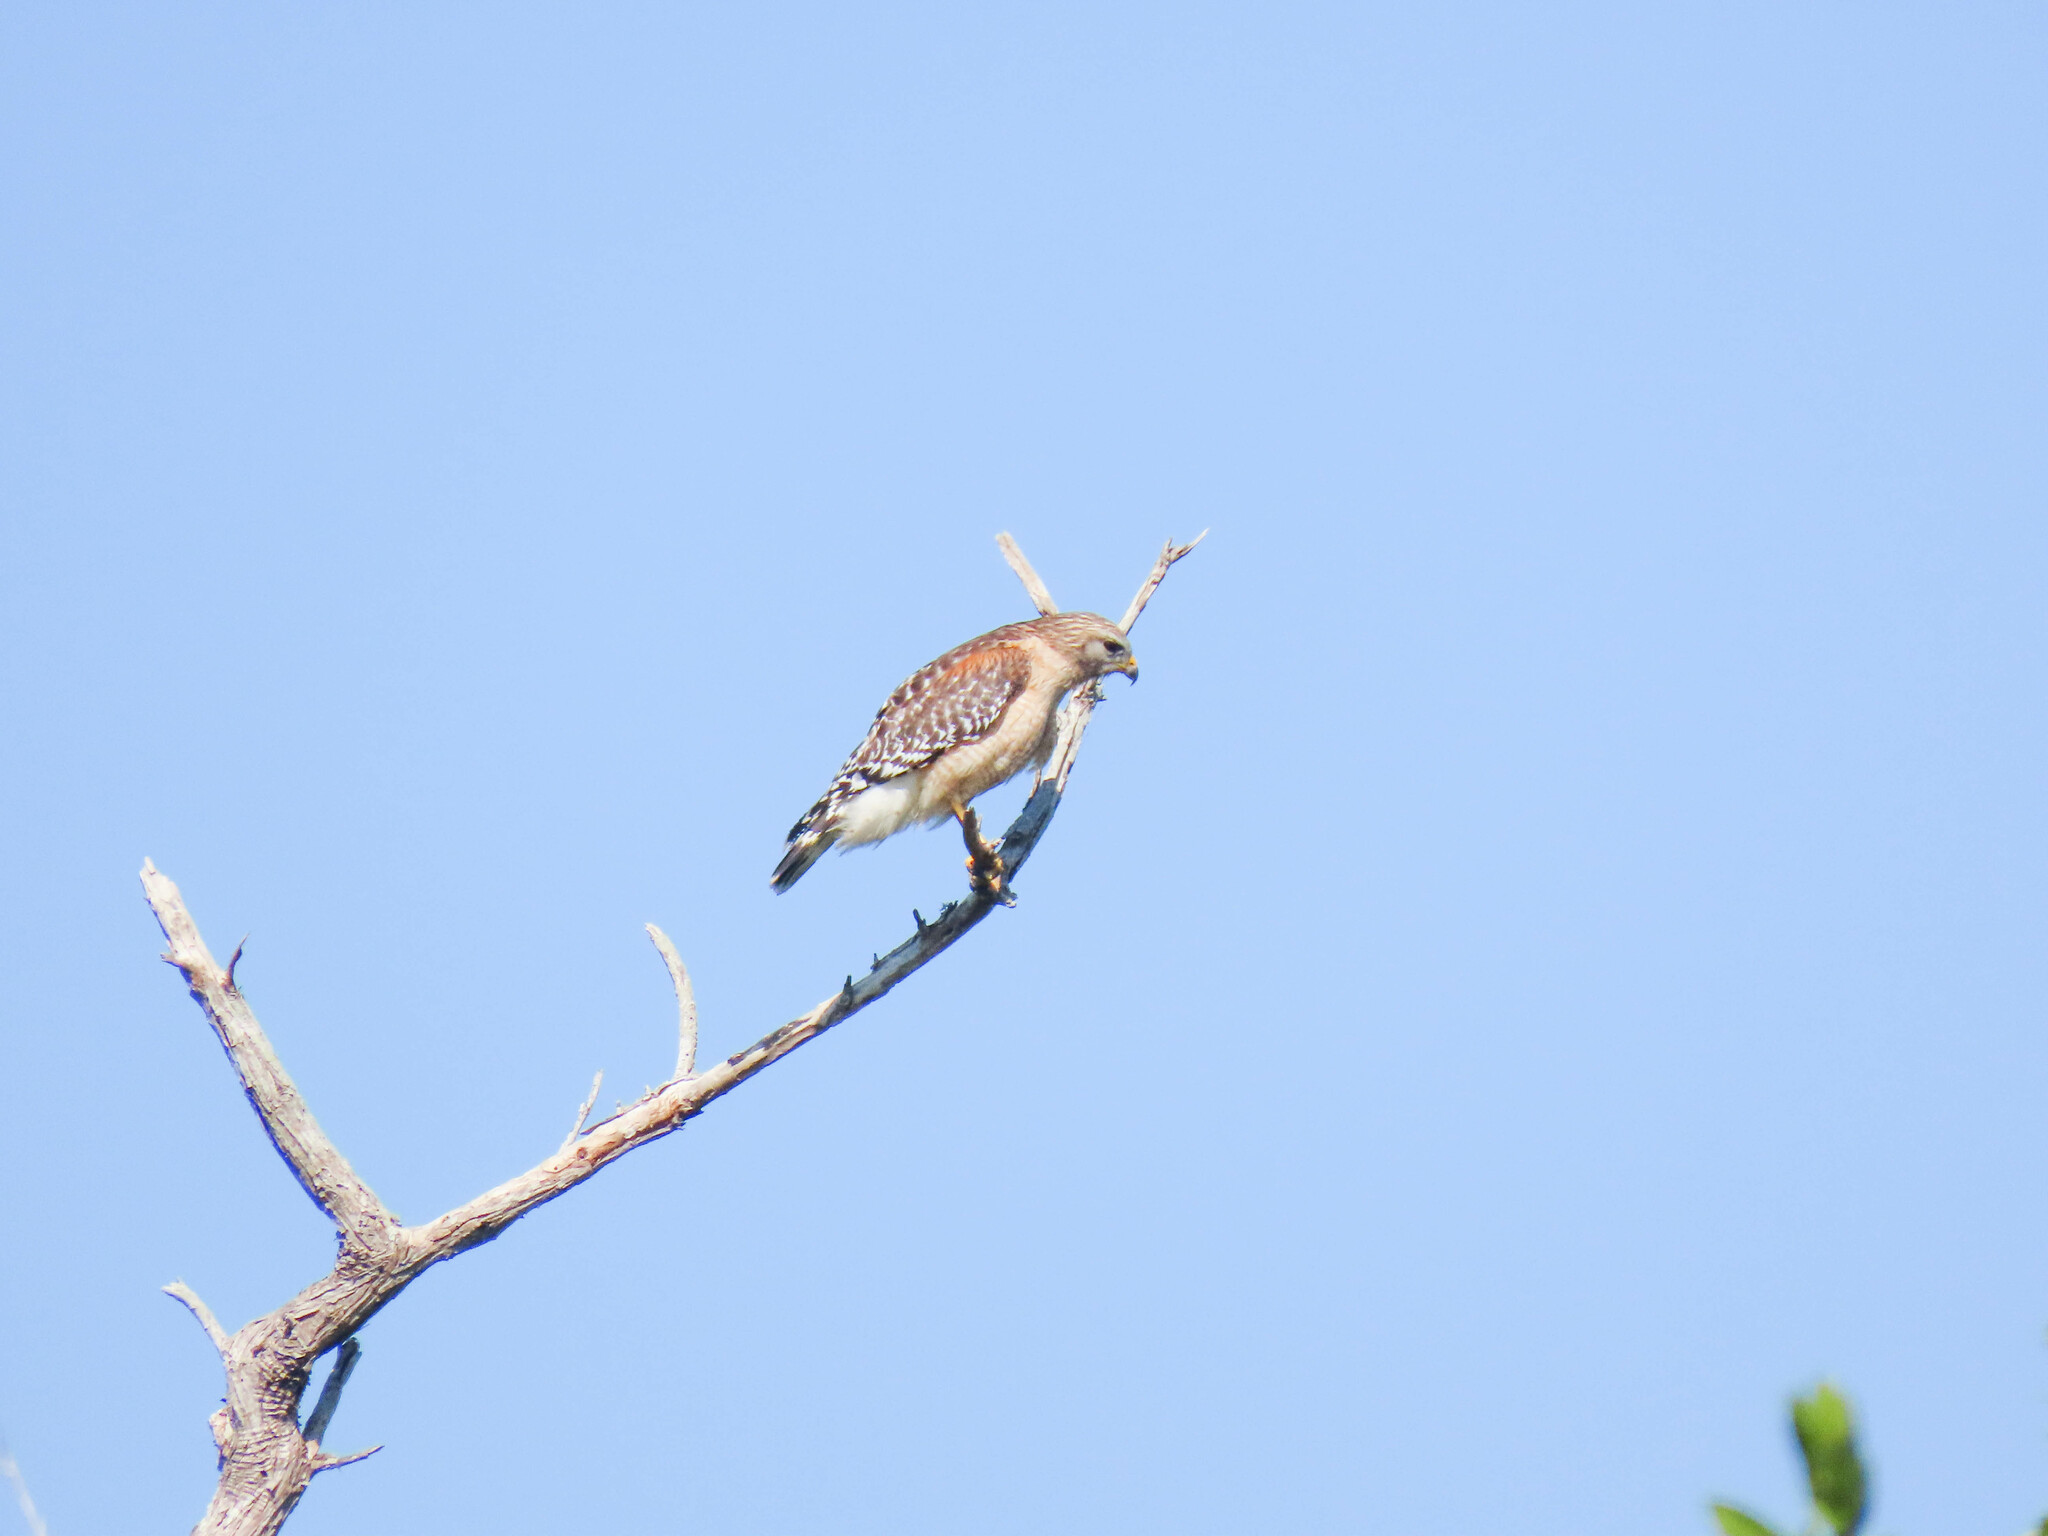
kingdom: Animalia
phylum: Chordata
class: Aves
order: Accipitriformes
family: Accipitridae
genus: Buteo
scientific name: Buteo lineatus
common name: Red-shouldered hawk
